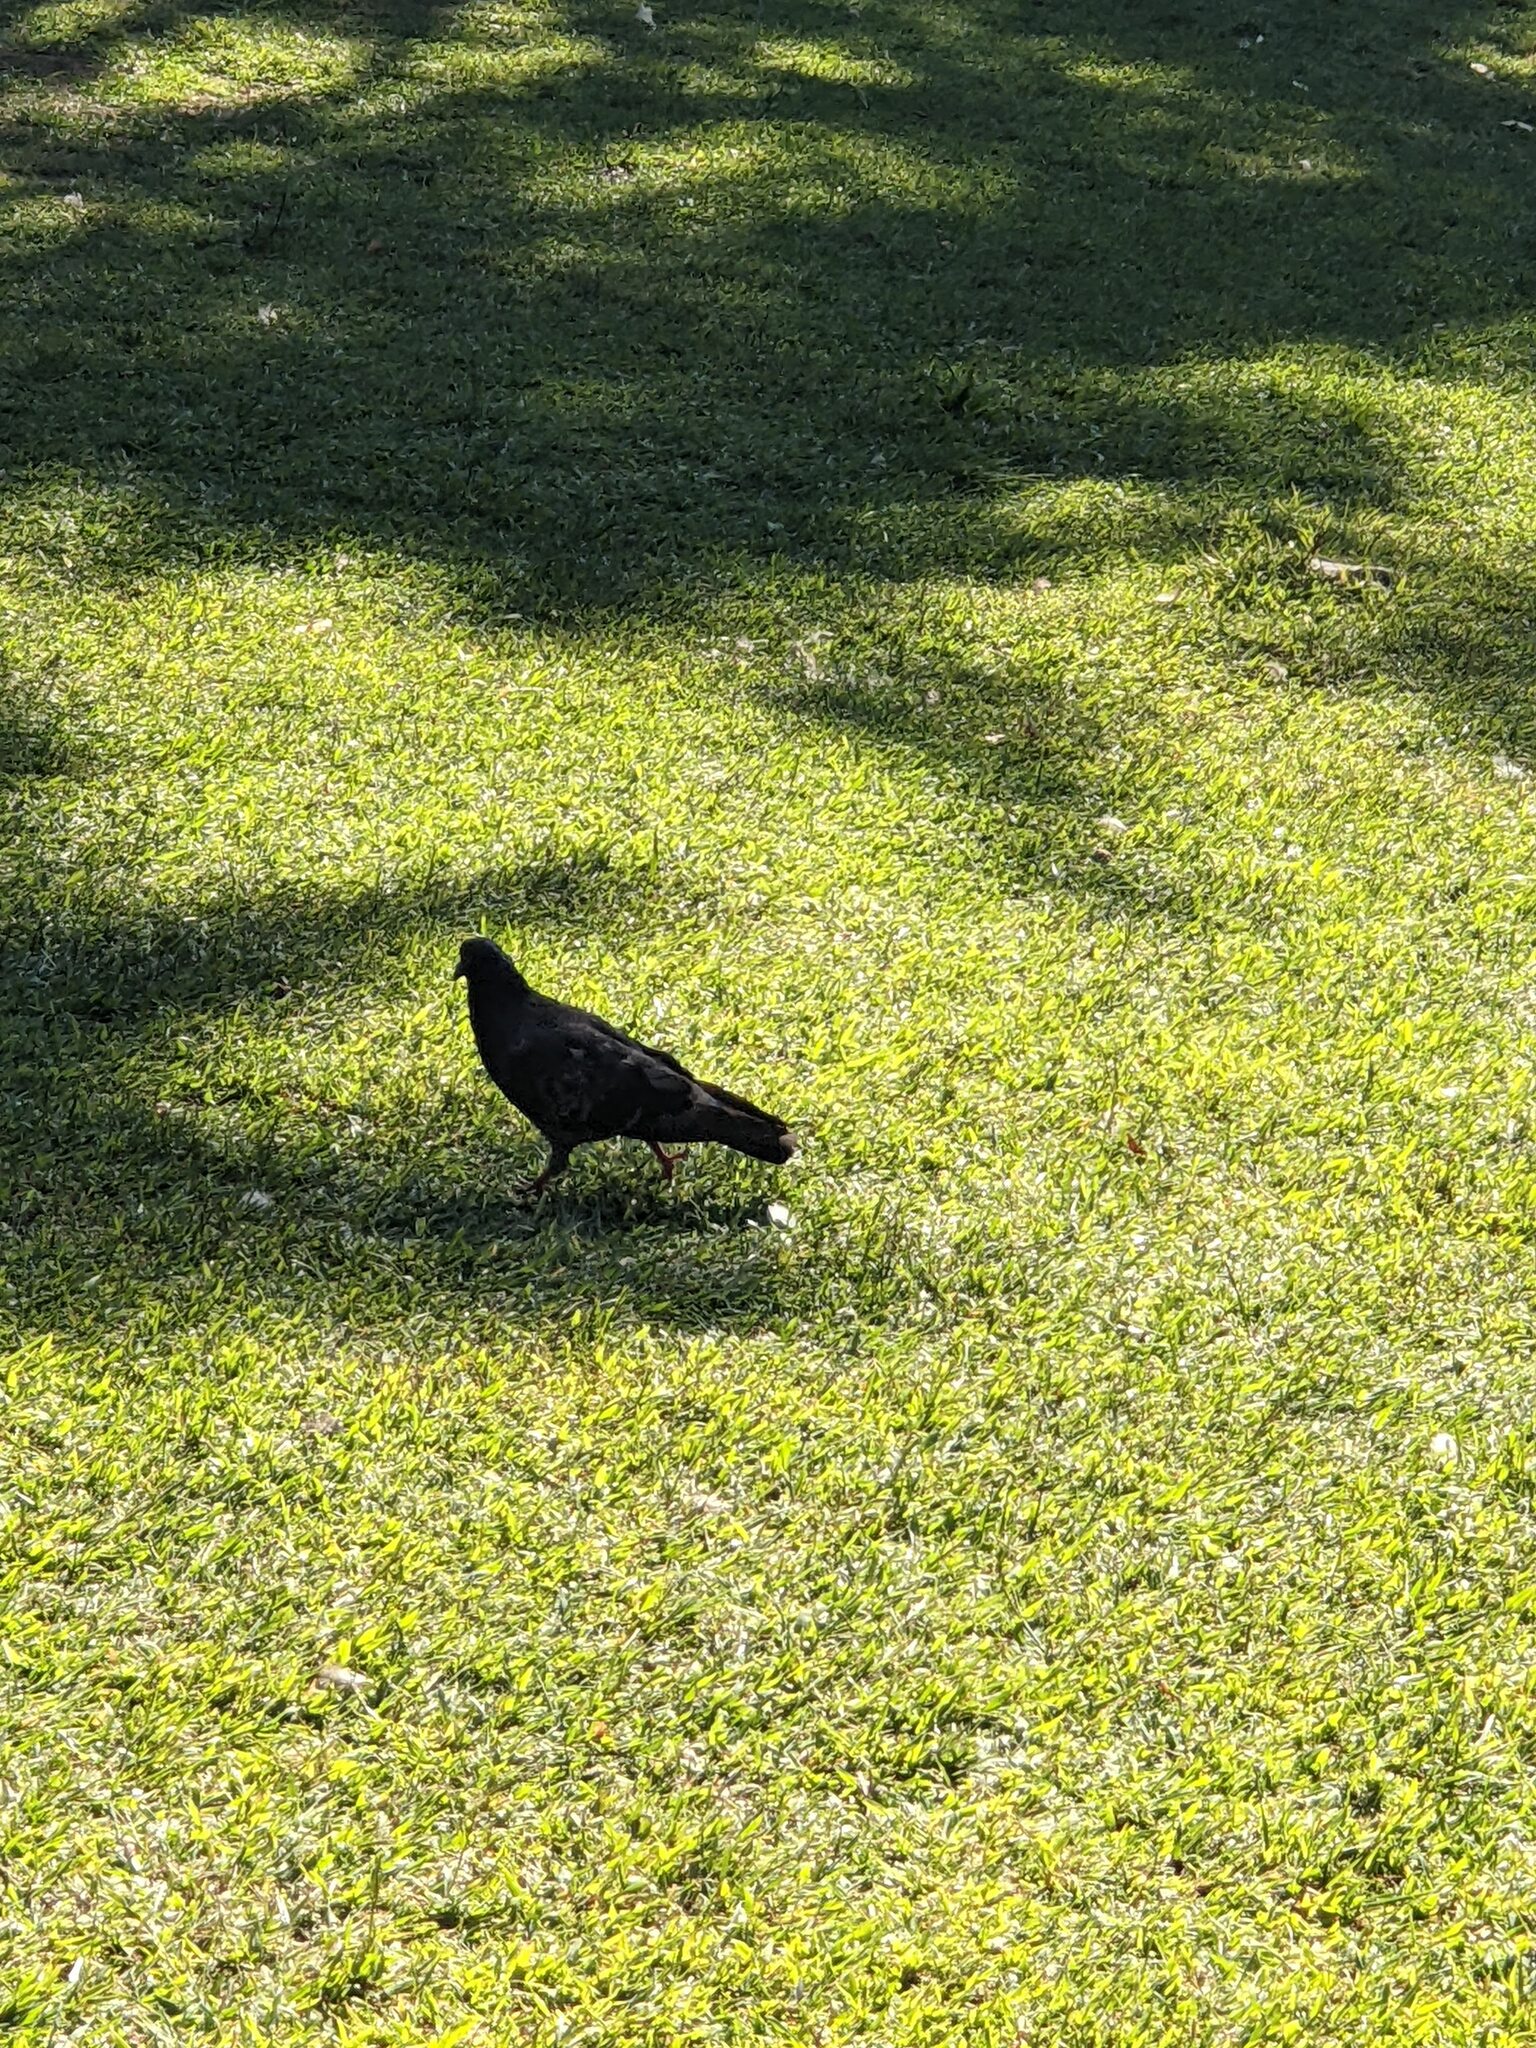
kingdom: Animalia
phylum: Chordata
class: Aves
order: Columbiformes
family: Columbidae
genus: Columba
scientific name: Columba livia
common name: Rock pigeon
